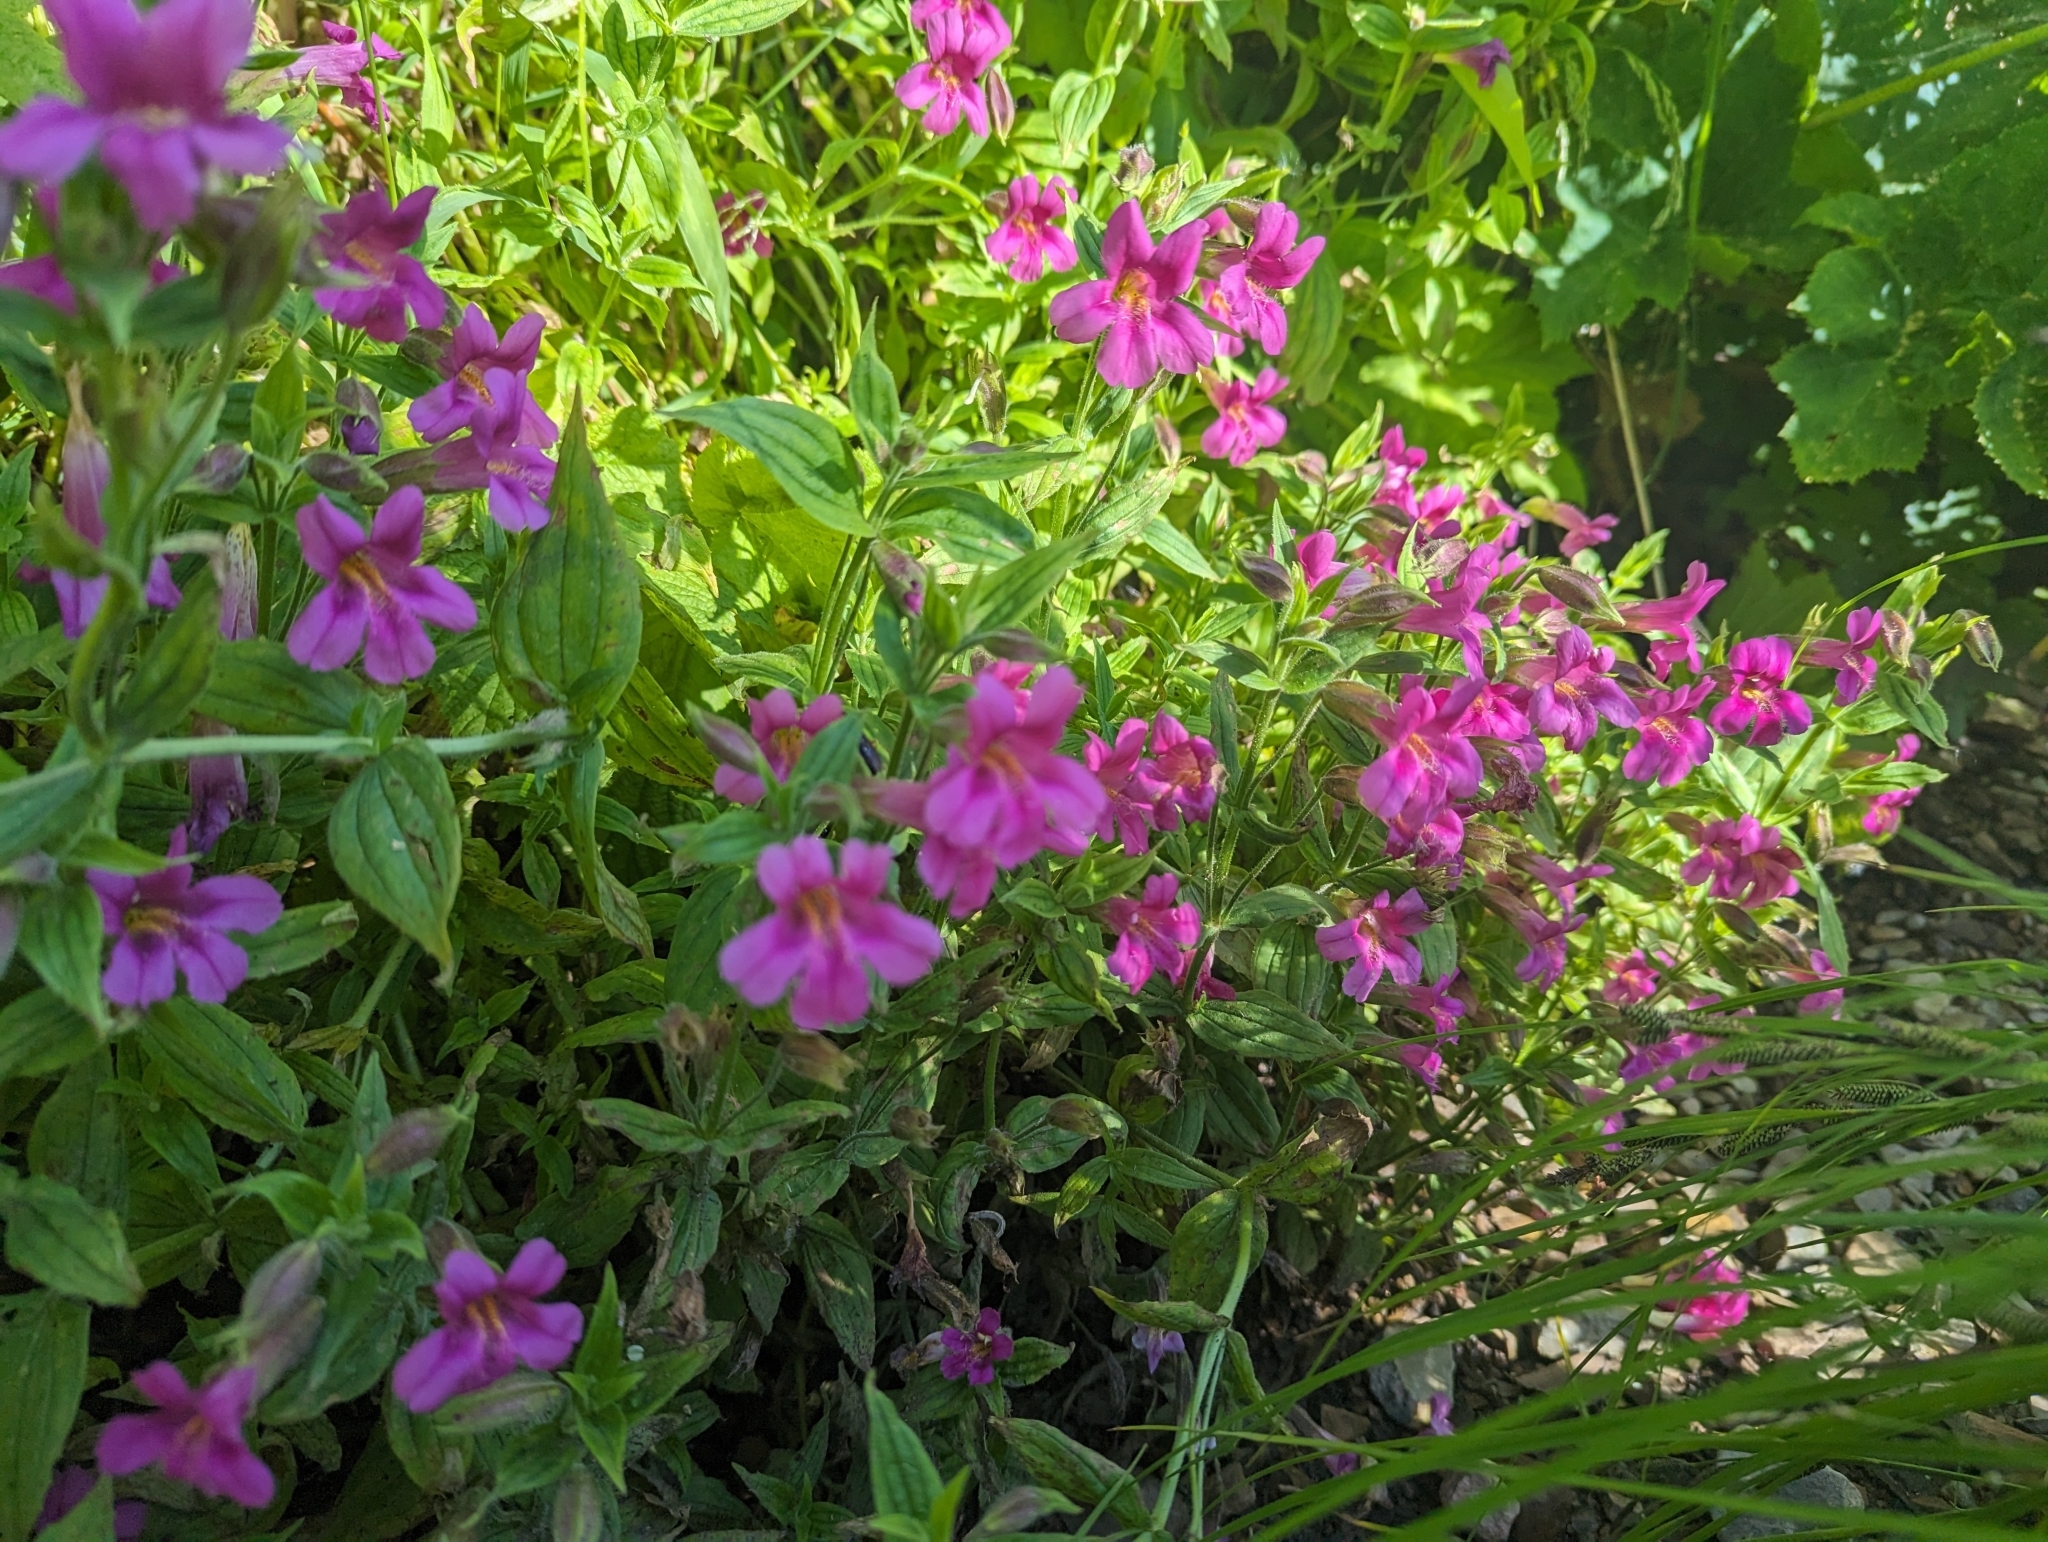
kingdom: Plantae
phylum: Tracheophyta
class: Magnoliopsida
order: Lamiales
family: Phrymaceae
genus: Erythranthe
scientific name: Erythranthe lewisii
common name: Lewis's monkey-flower
